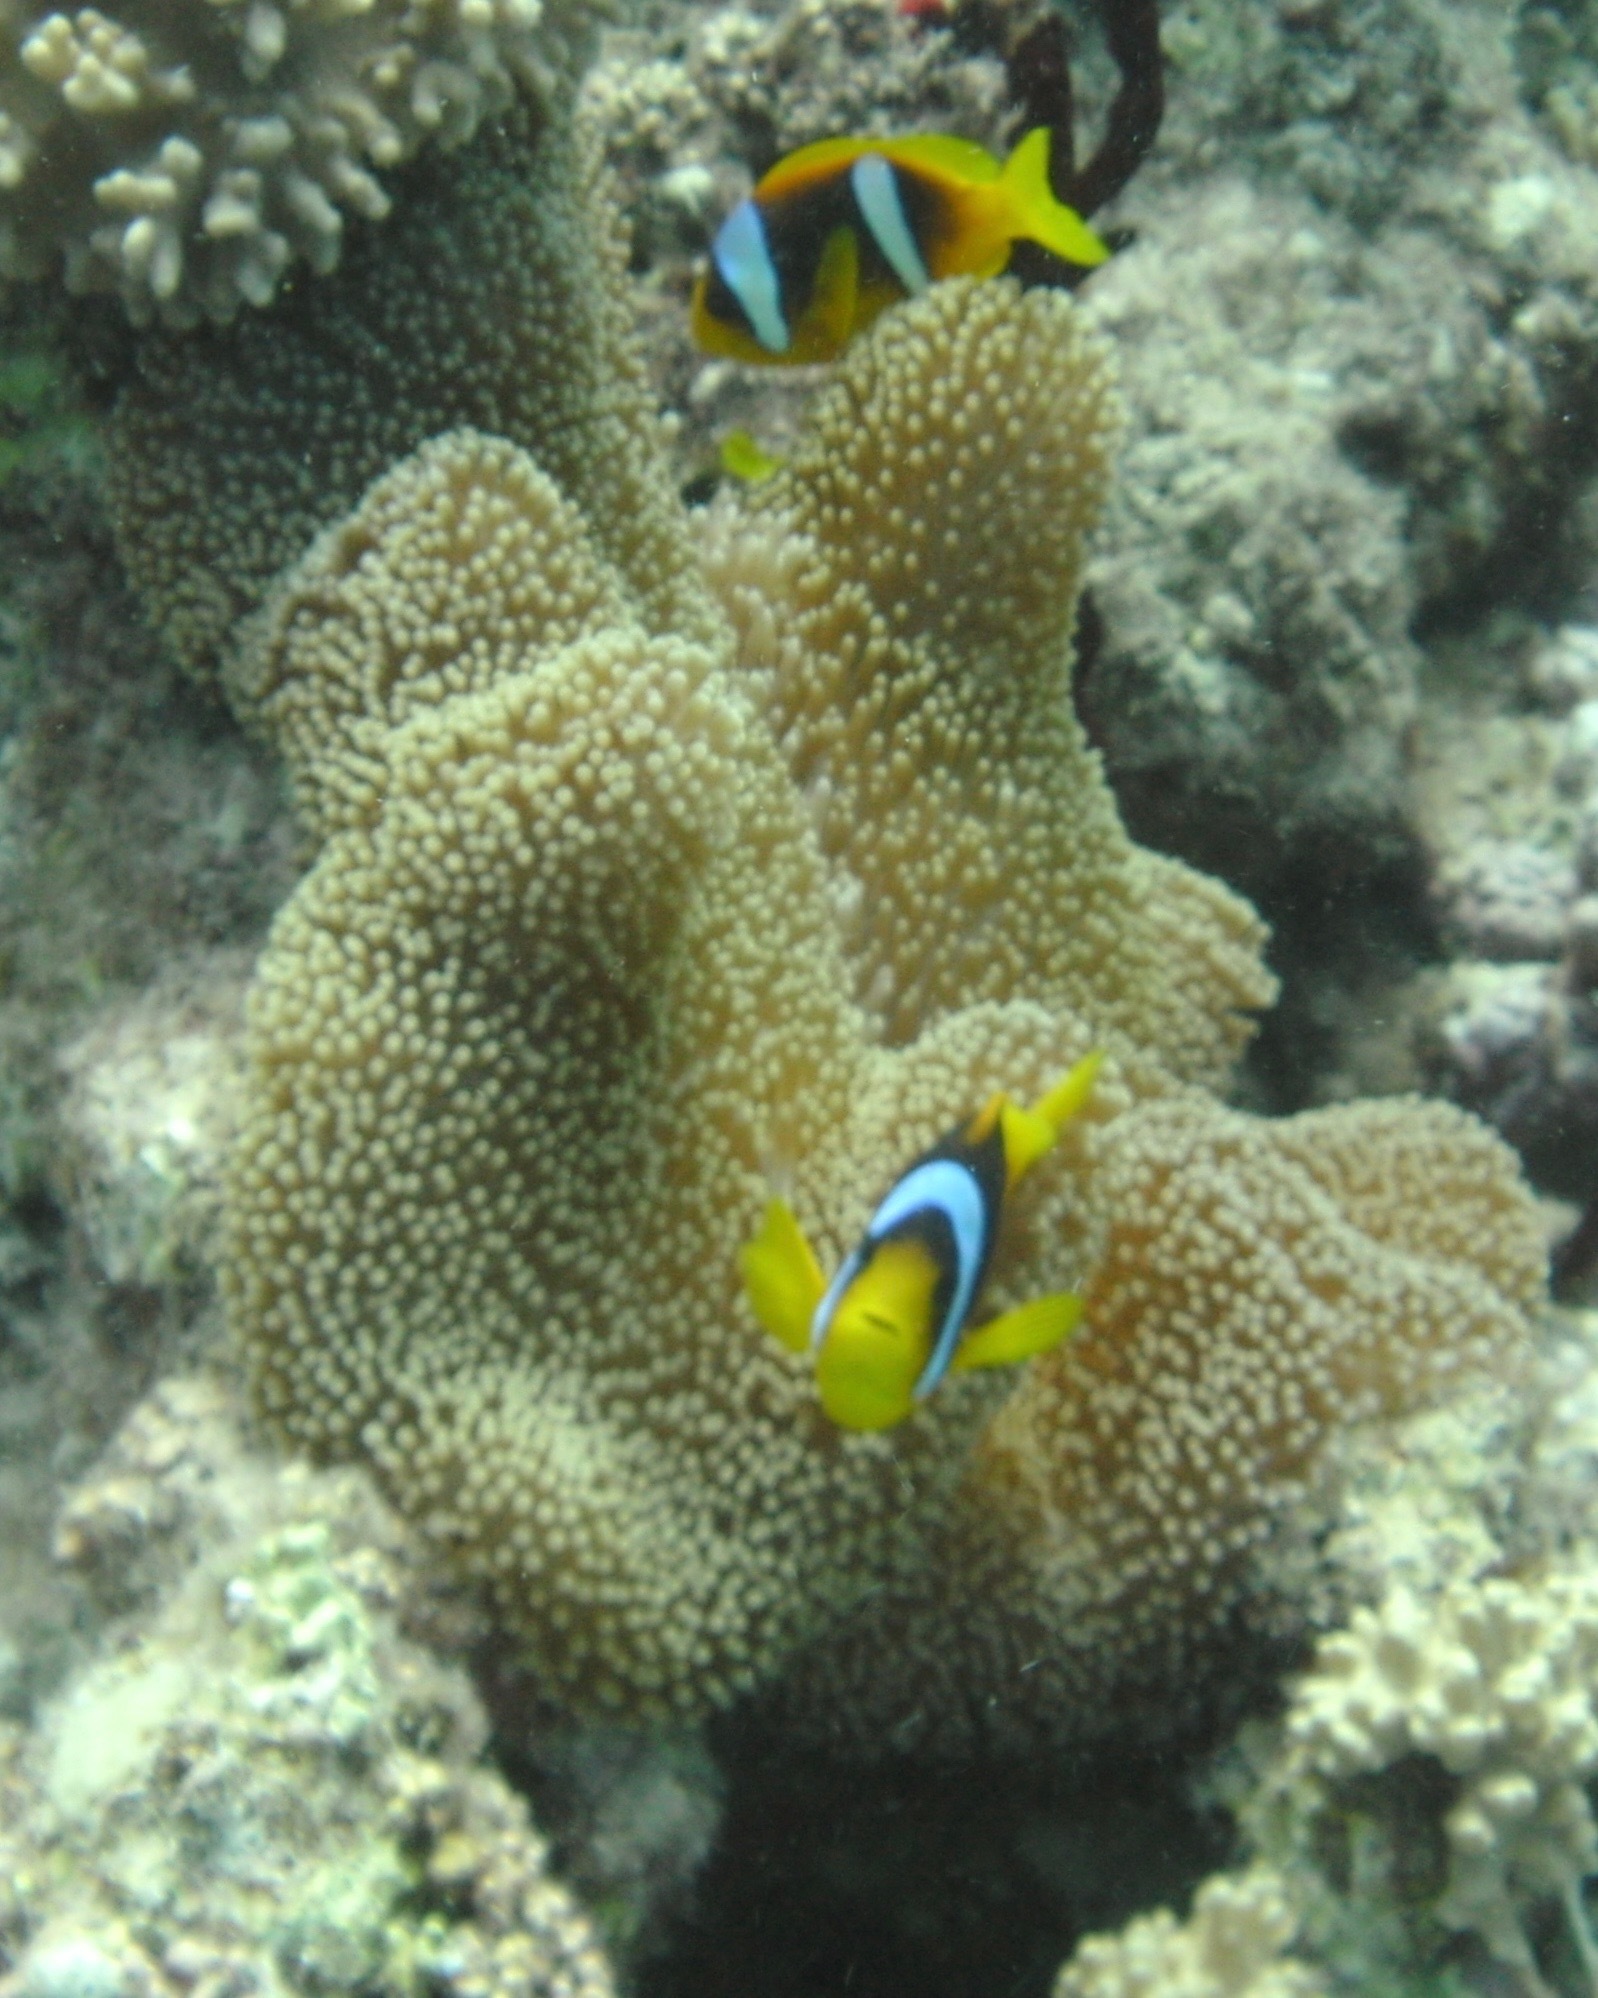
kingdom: Animalia
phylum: Chordata
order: Perciformes
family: Pomacentridae
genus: Amphiprion
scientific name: Amphiprion bicinctus
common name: Two-banded anemonefish
